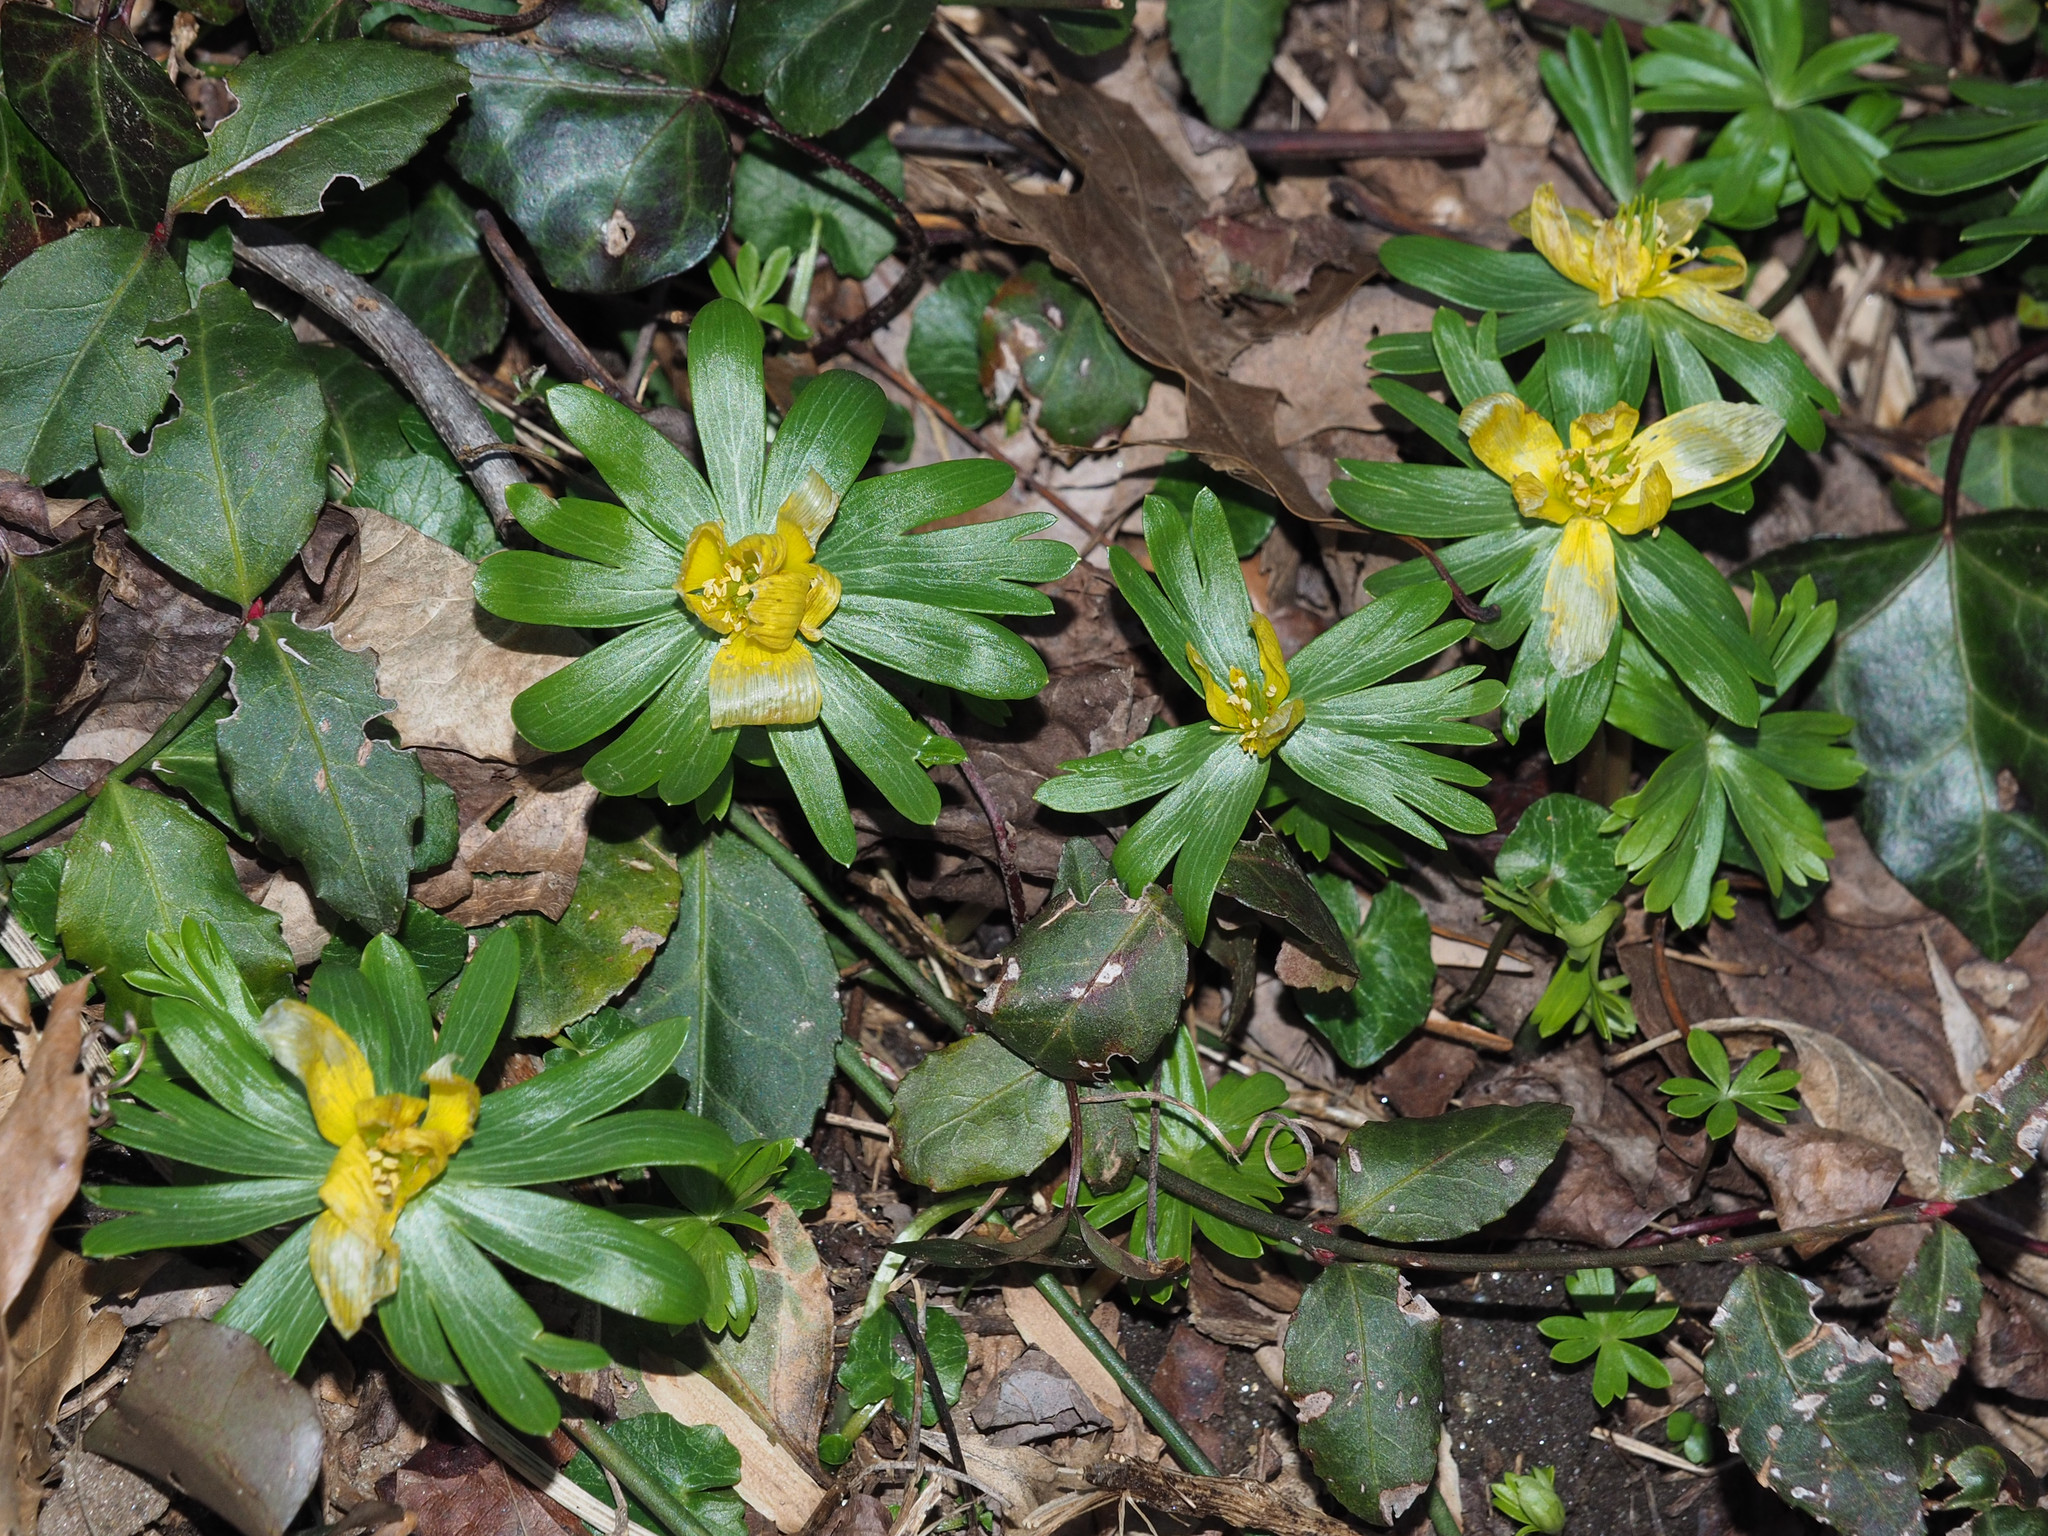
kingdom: Plantae
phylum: Tracheophyta
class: Magnoliopsida
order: Ranunculales
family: Ranunculaceae
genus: Eranthis
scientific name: Eranthis hyemalis
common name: Winter aconite
